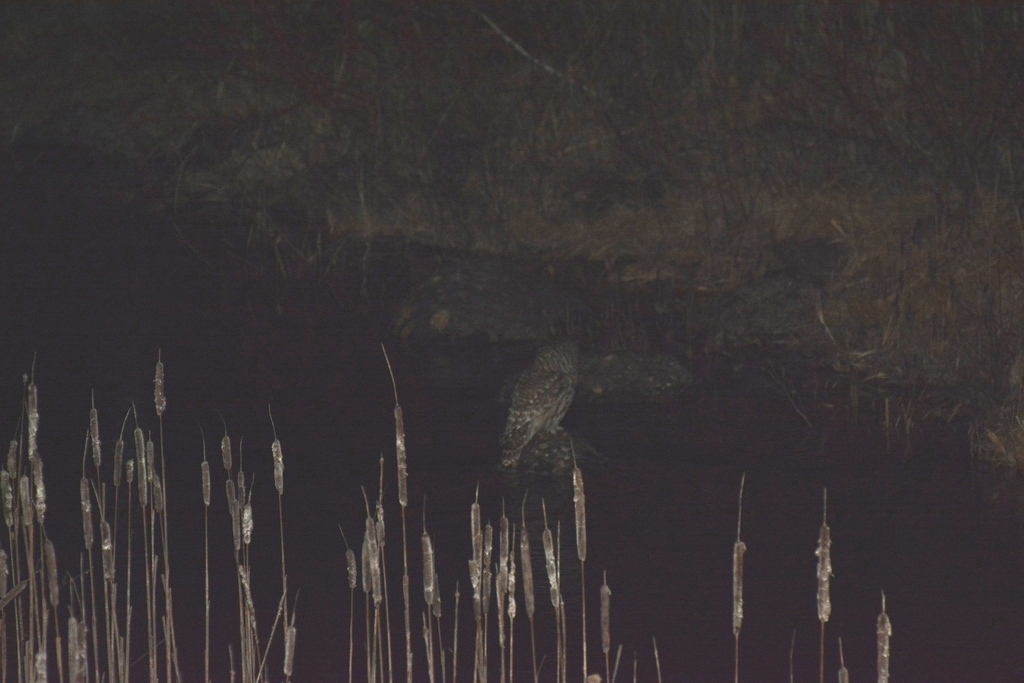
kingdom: Animalia
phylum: Chordata
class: Aves
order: Strigiformes
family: Strigidae
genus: Strix
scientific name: Strix varia
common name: Barred owl
